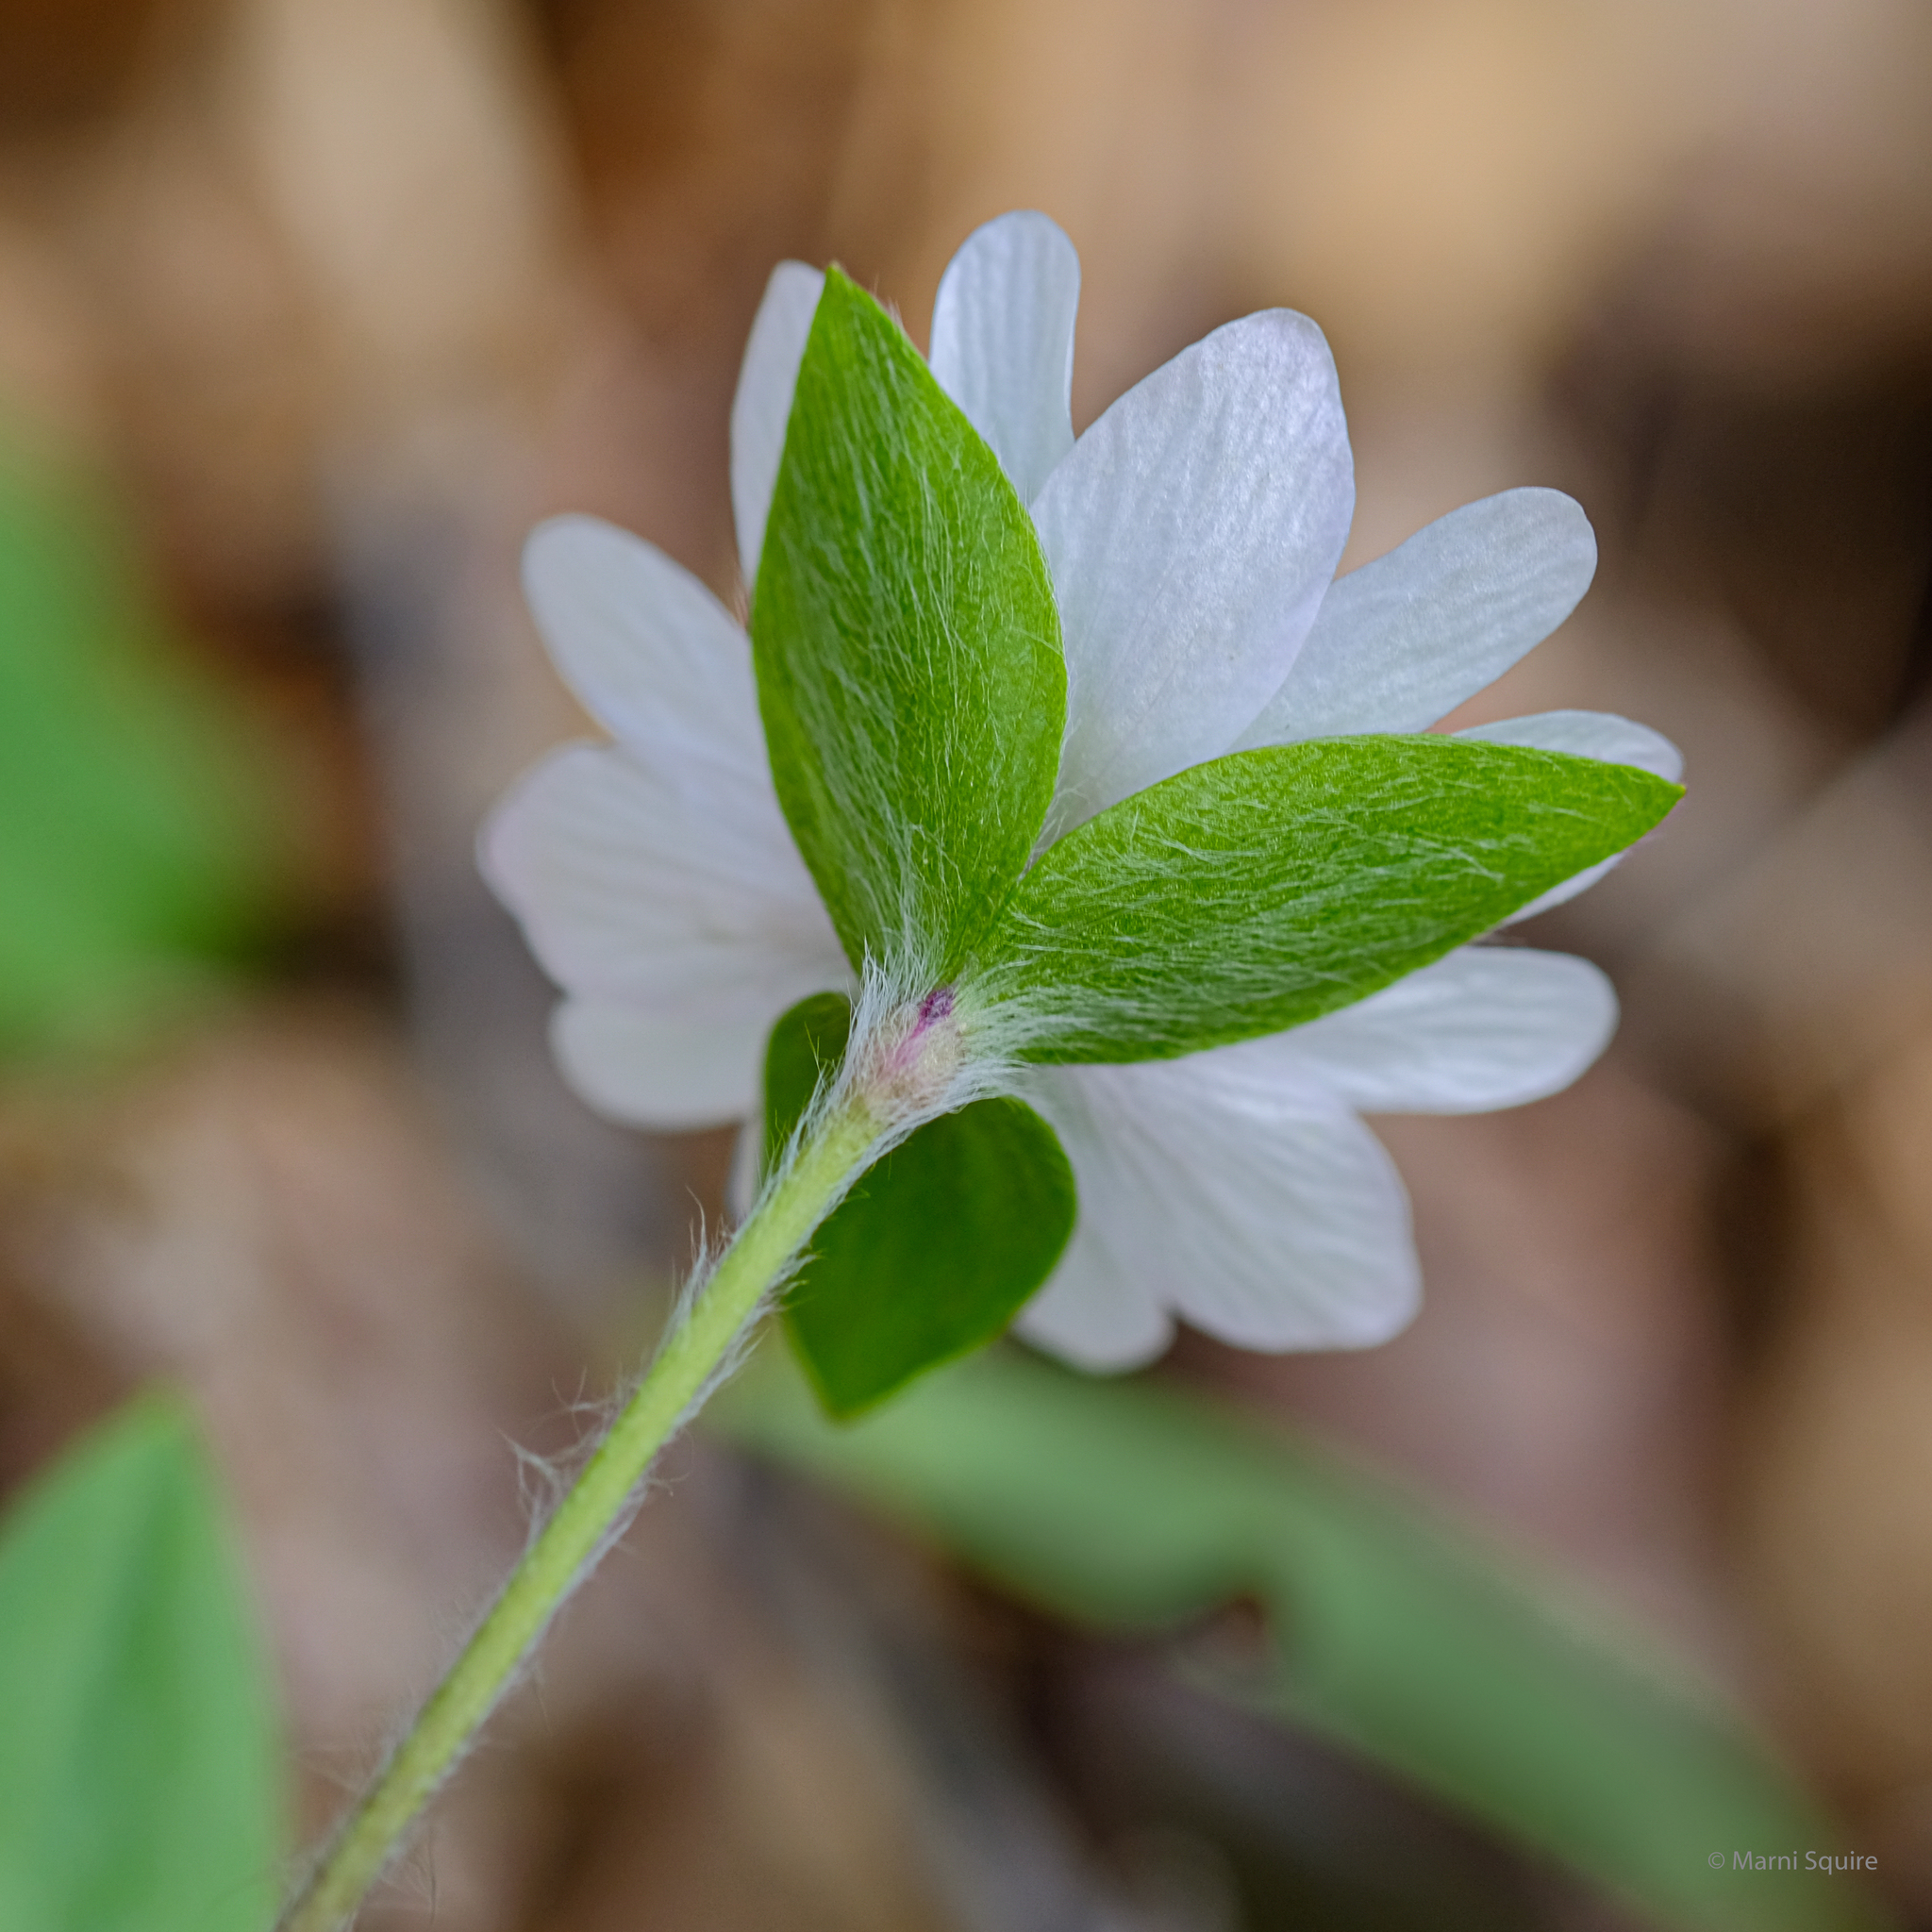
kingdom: Plantae
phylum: Tracheophyta
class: Magnoliopsida
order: Ranunculales
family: Ranunculaceae
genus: Hepatica
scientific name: Hepatica acutiloba
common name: Sharp-lobed hepatica
